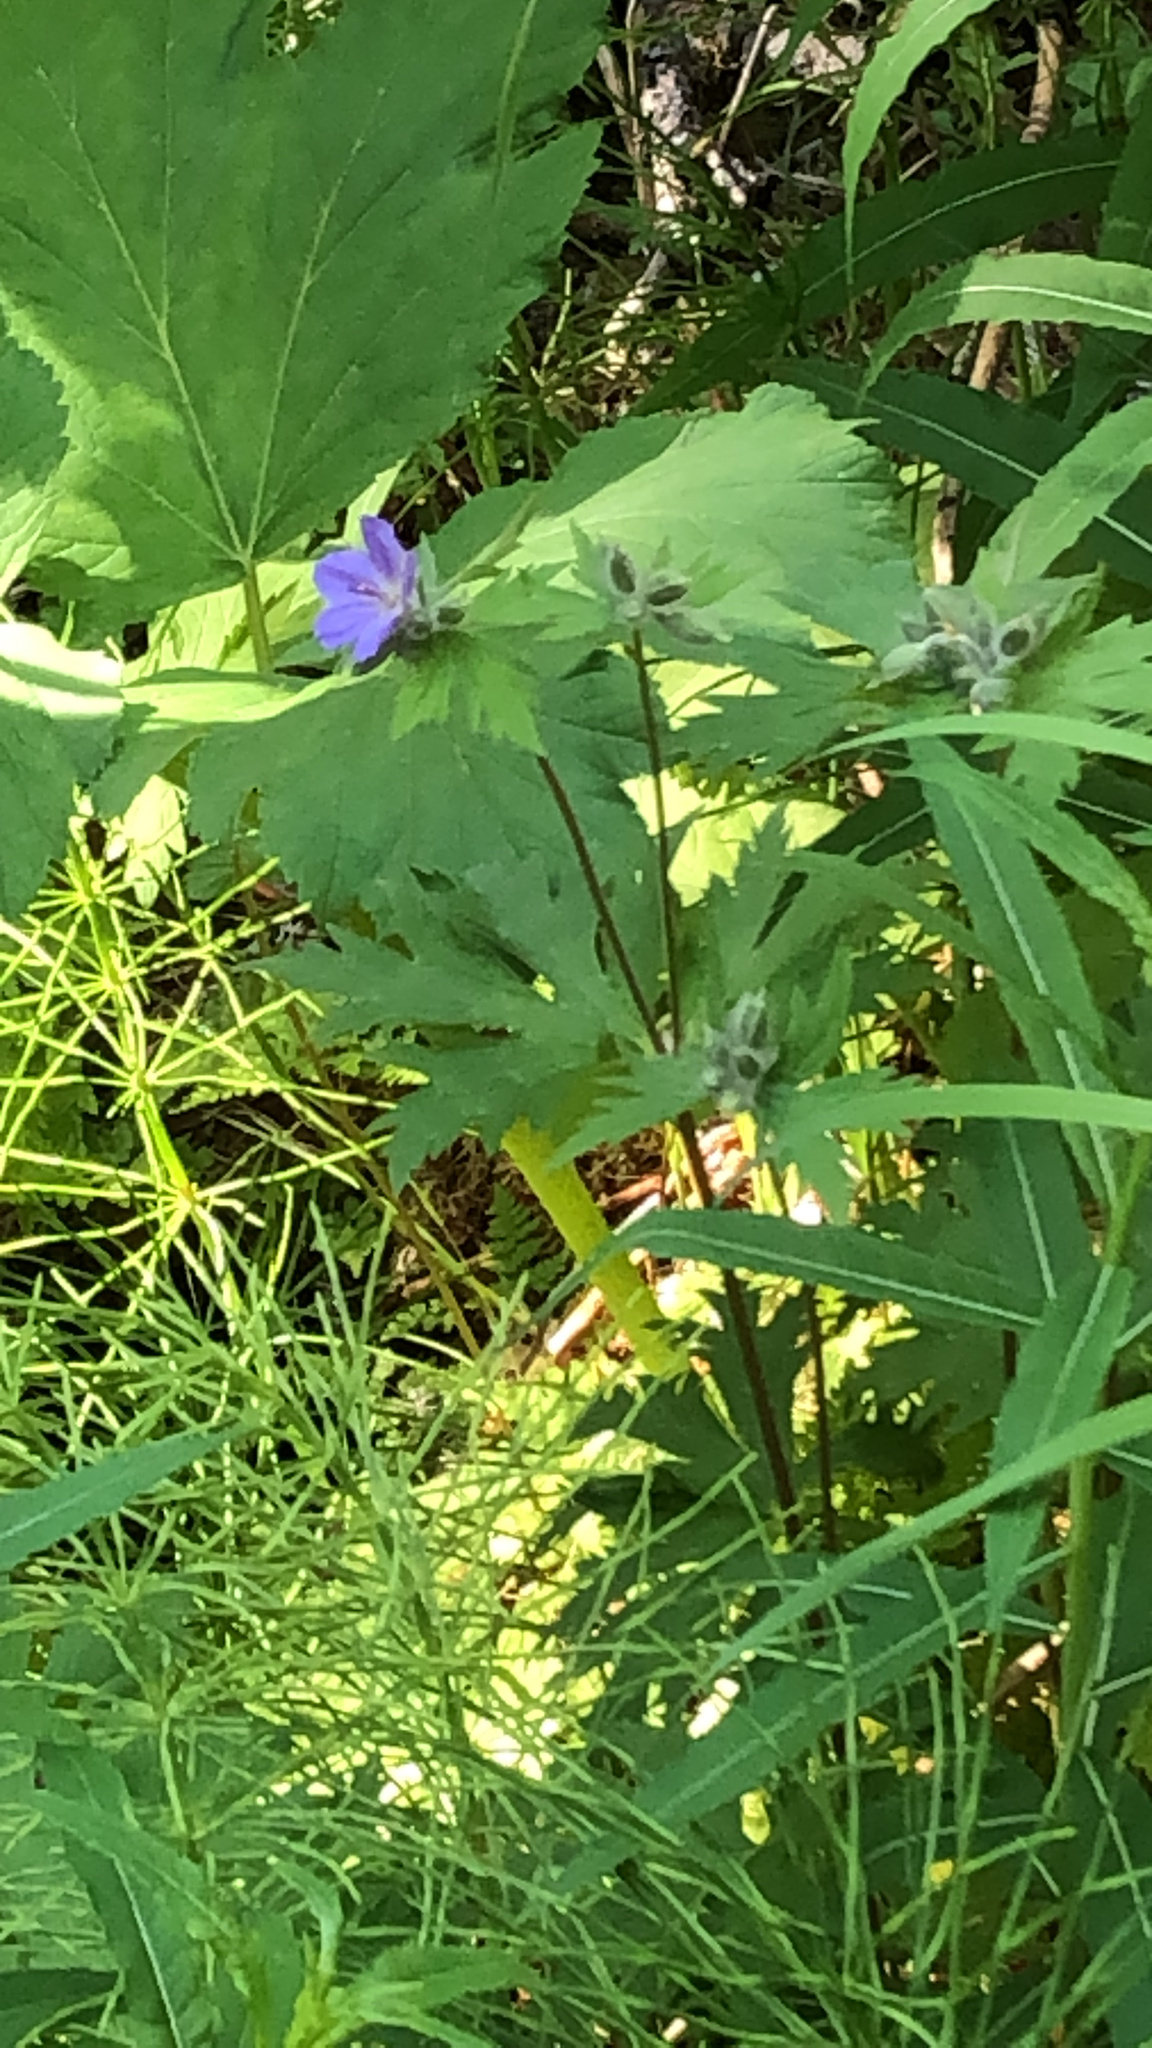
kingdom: Plantae
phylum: Tracheophyta
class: Magnoliopsida
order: Geraniales
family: Geraniaceae
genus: Geranium
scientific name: Geranium erianthum
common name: Northern crane's-bill
